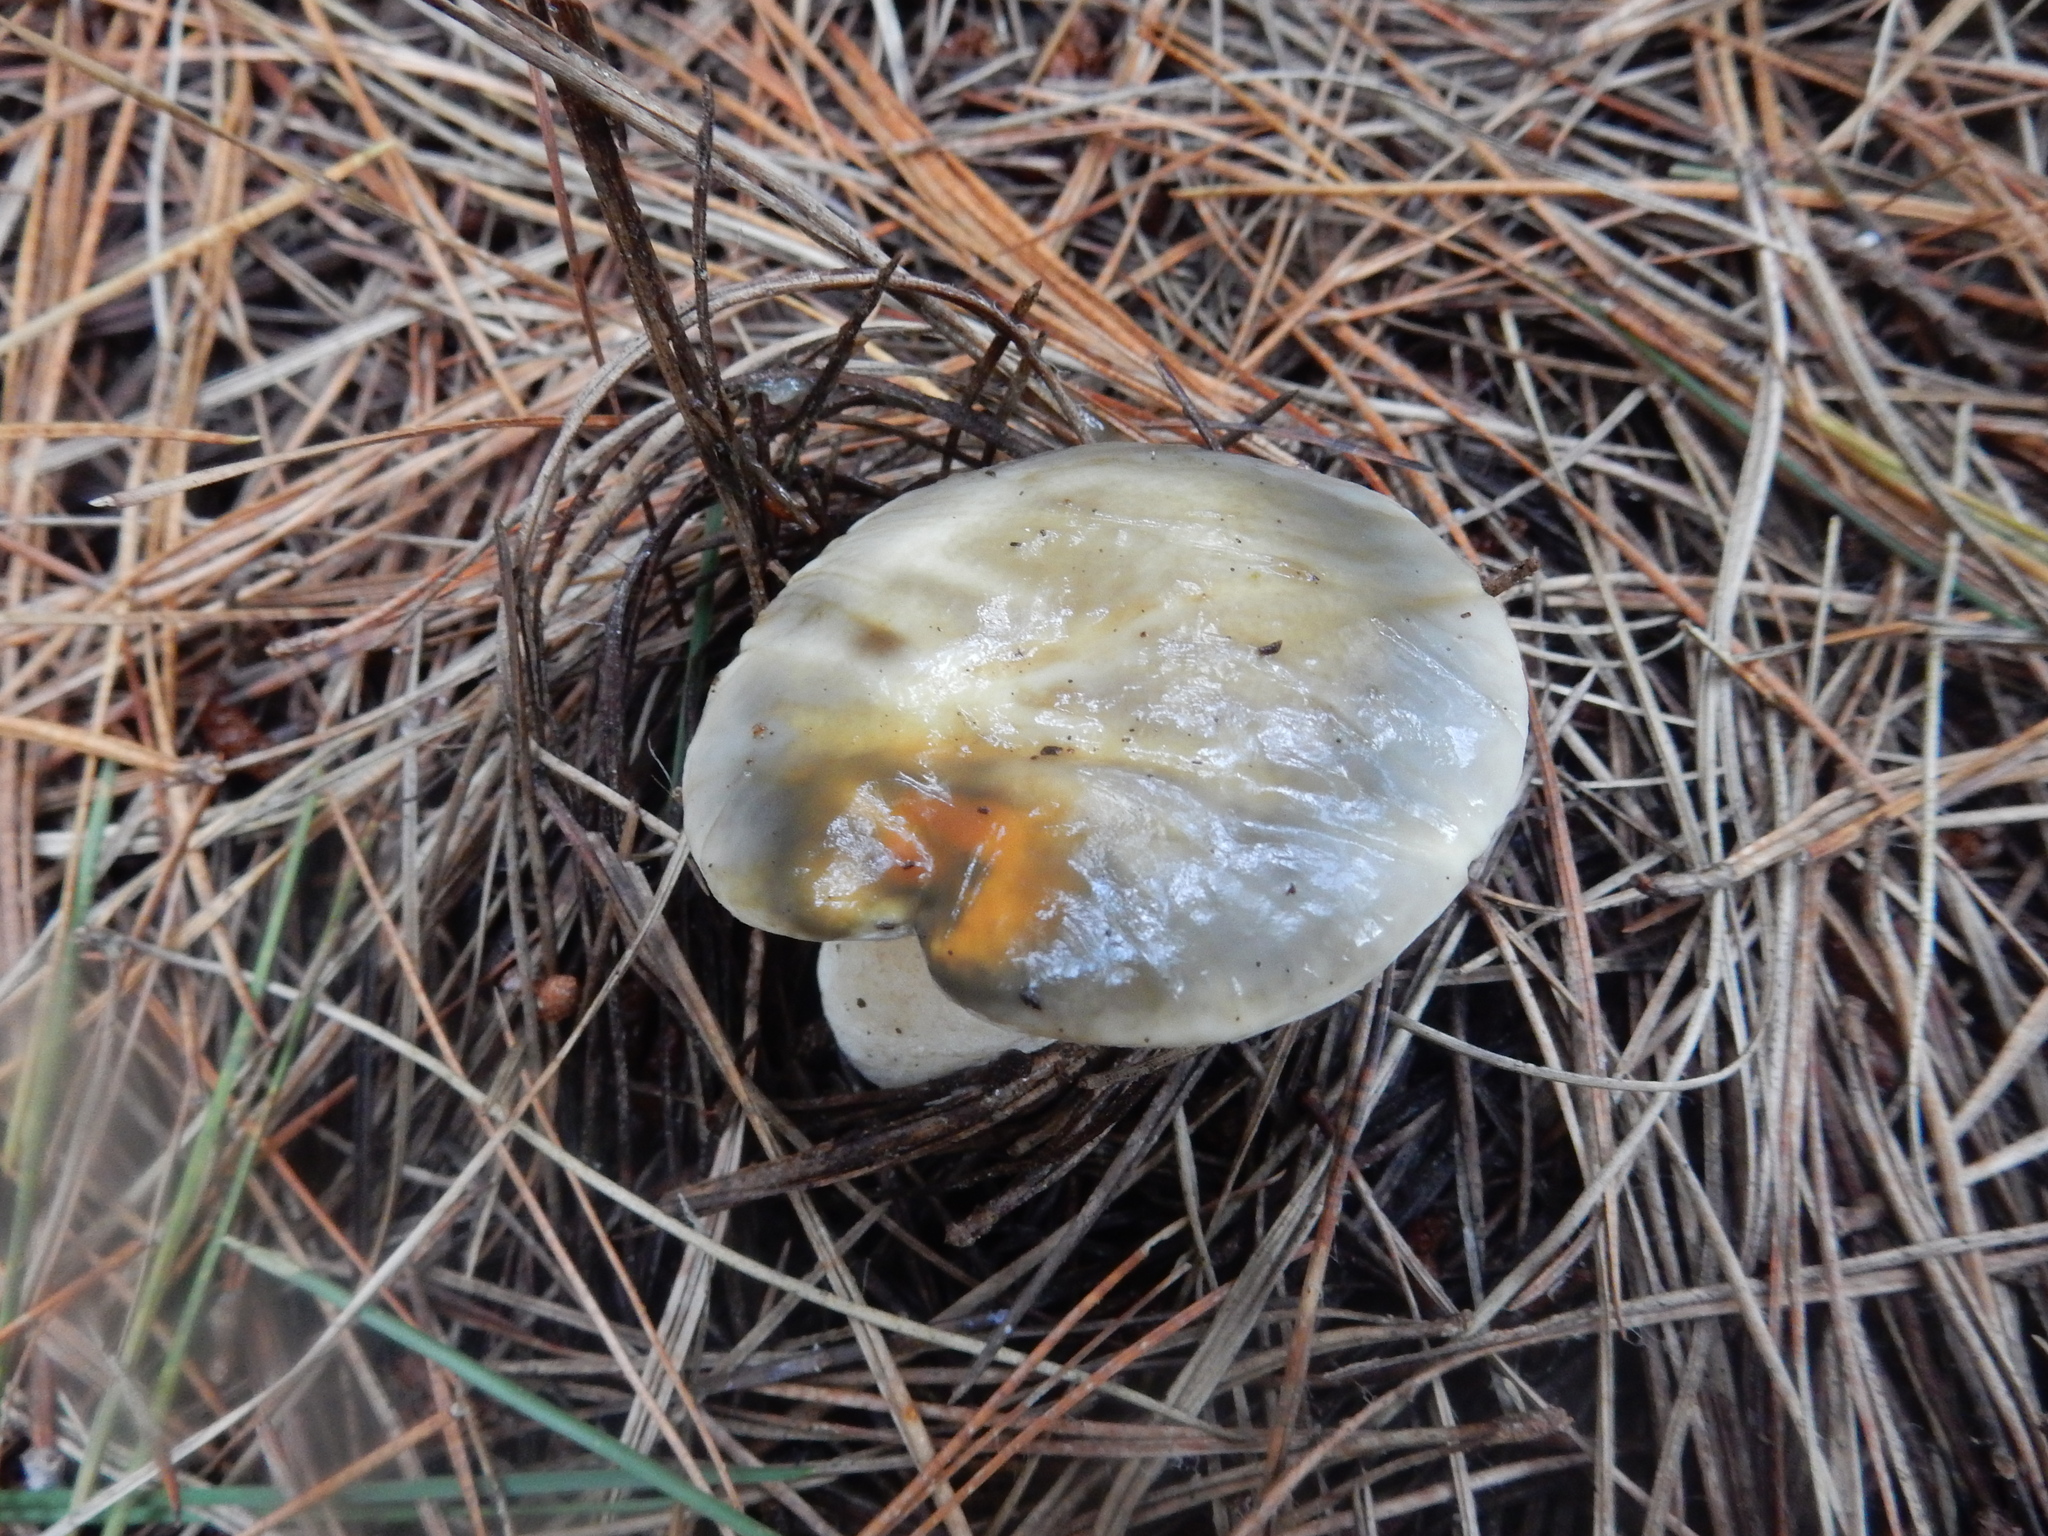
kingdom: Fungi
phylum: Basidiomycota
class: Agaricomycetes
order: Boletales
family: Suillaceae
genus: Suillus
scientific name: Suillus pungens
